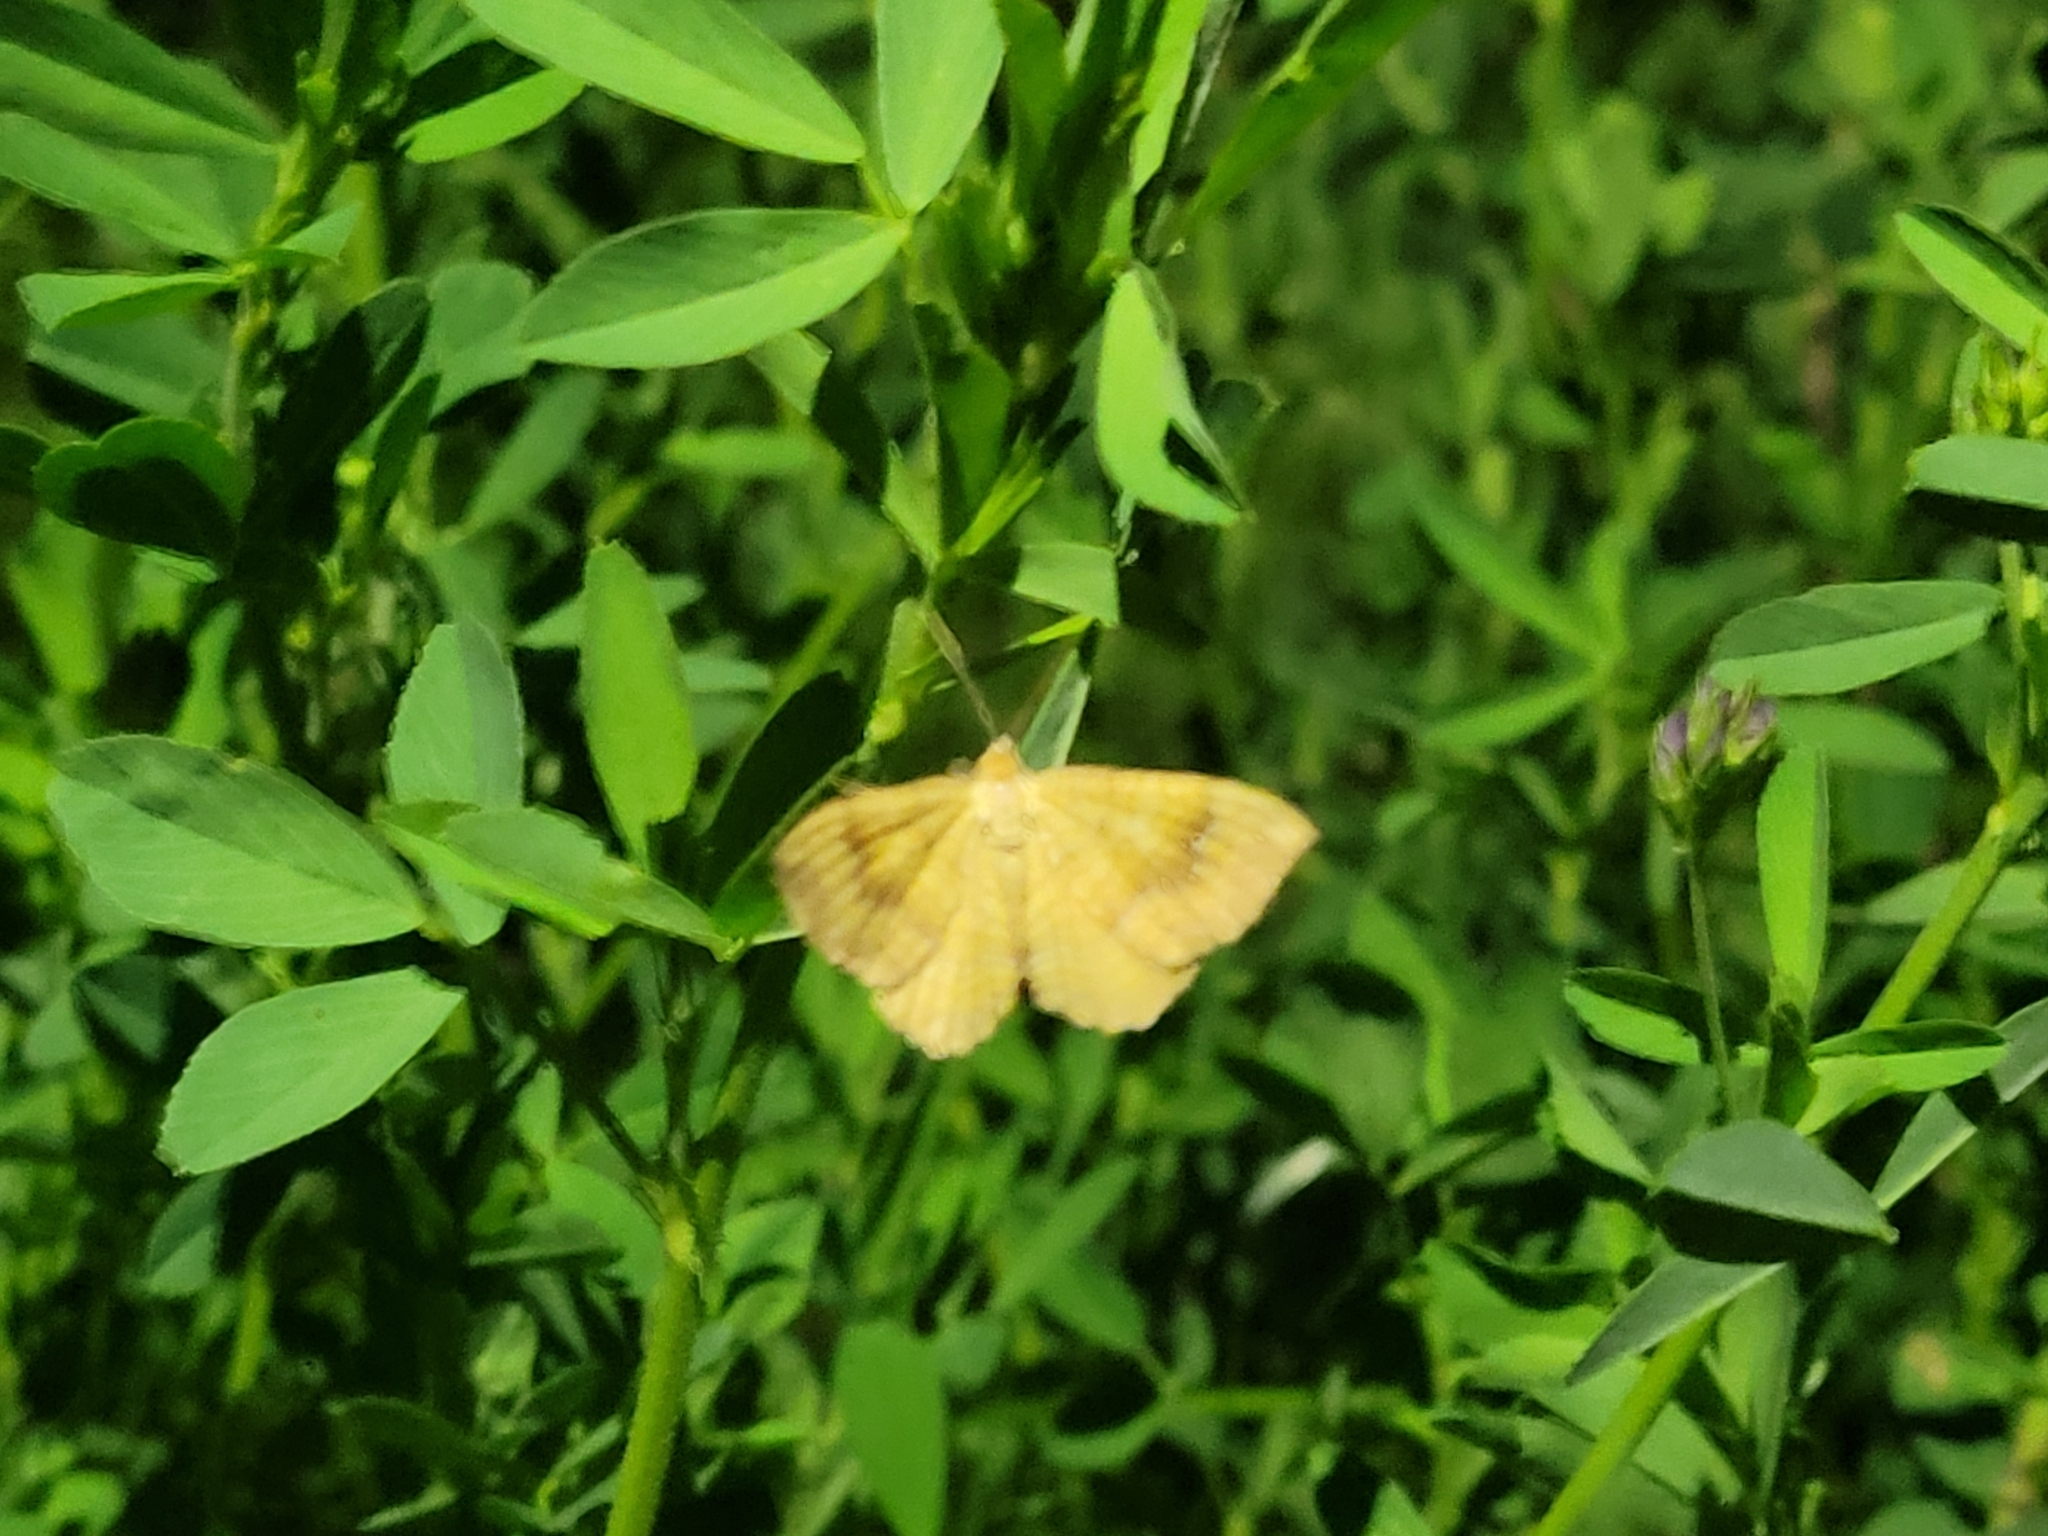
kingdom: Animalia
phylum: Arthropoda
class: Insecta
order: Lepidoptera
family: Geometridae
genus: Camptogramma
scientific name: Camptogramma bilineata
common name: Yellow shell
